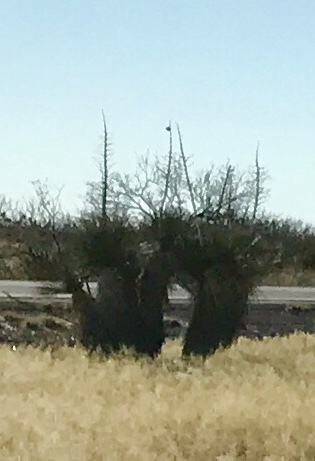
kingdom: Plantae
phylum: Tracheophyta
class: Liliopsida
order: Asparagales
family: Asparagaceae
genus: Yucca
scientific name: Yucca elata
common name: Palmella
